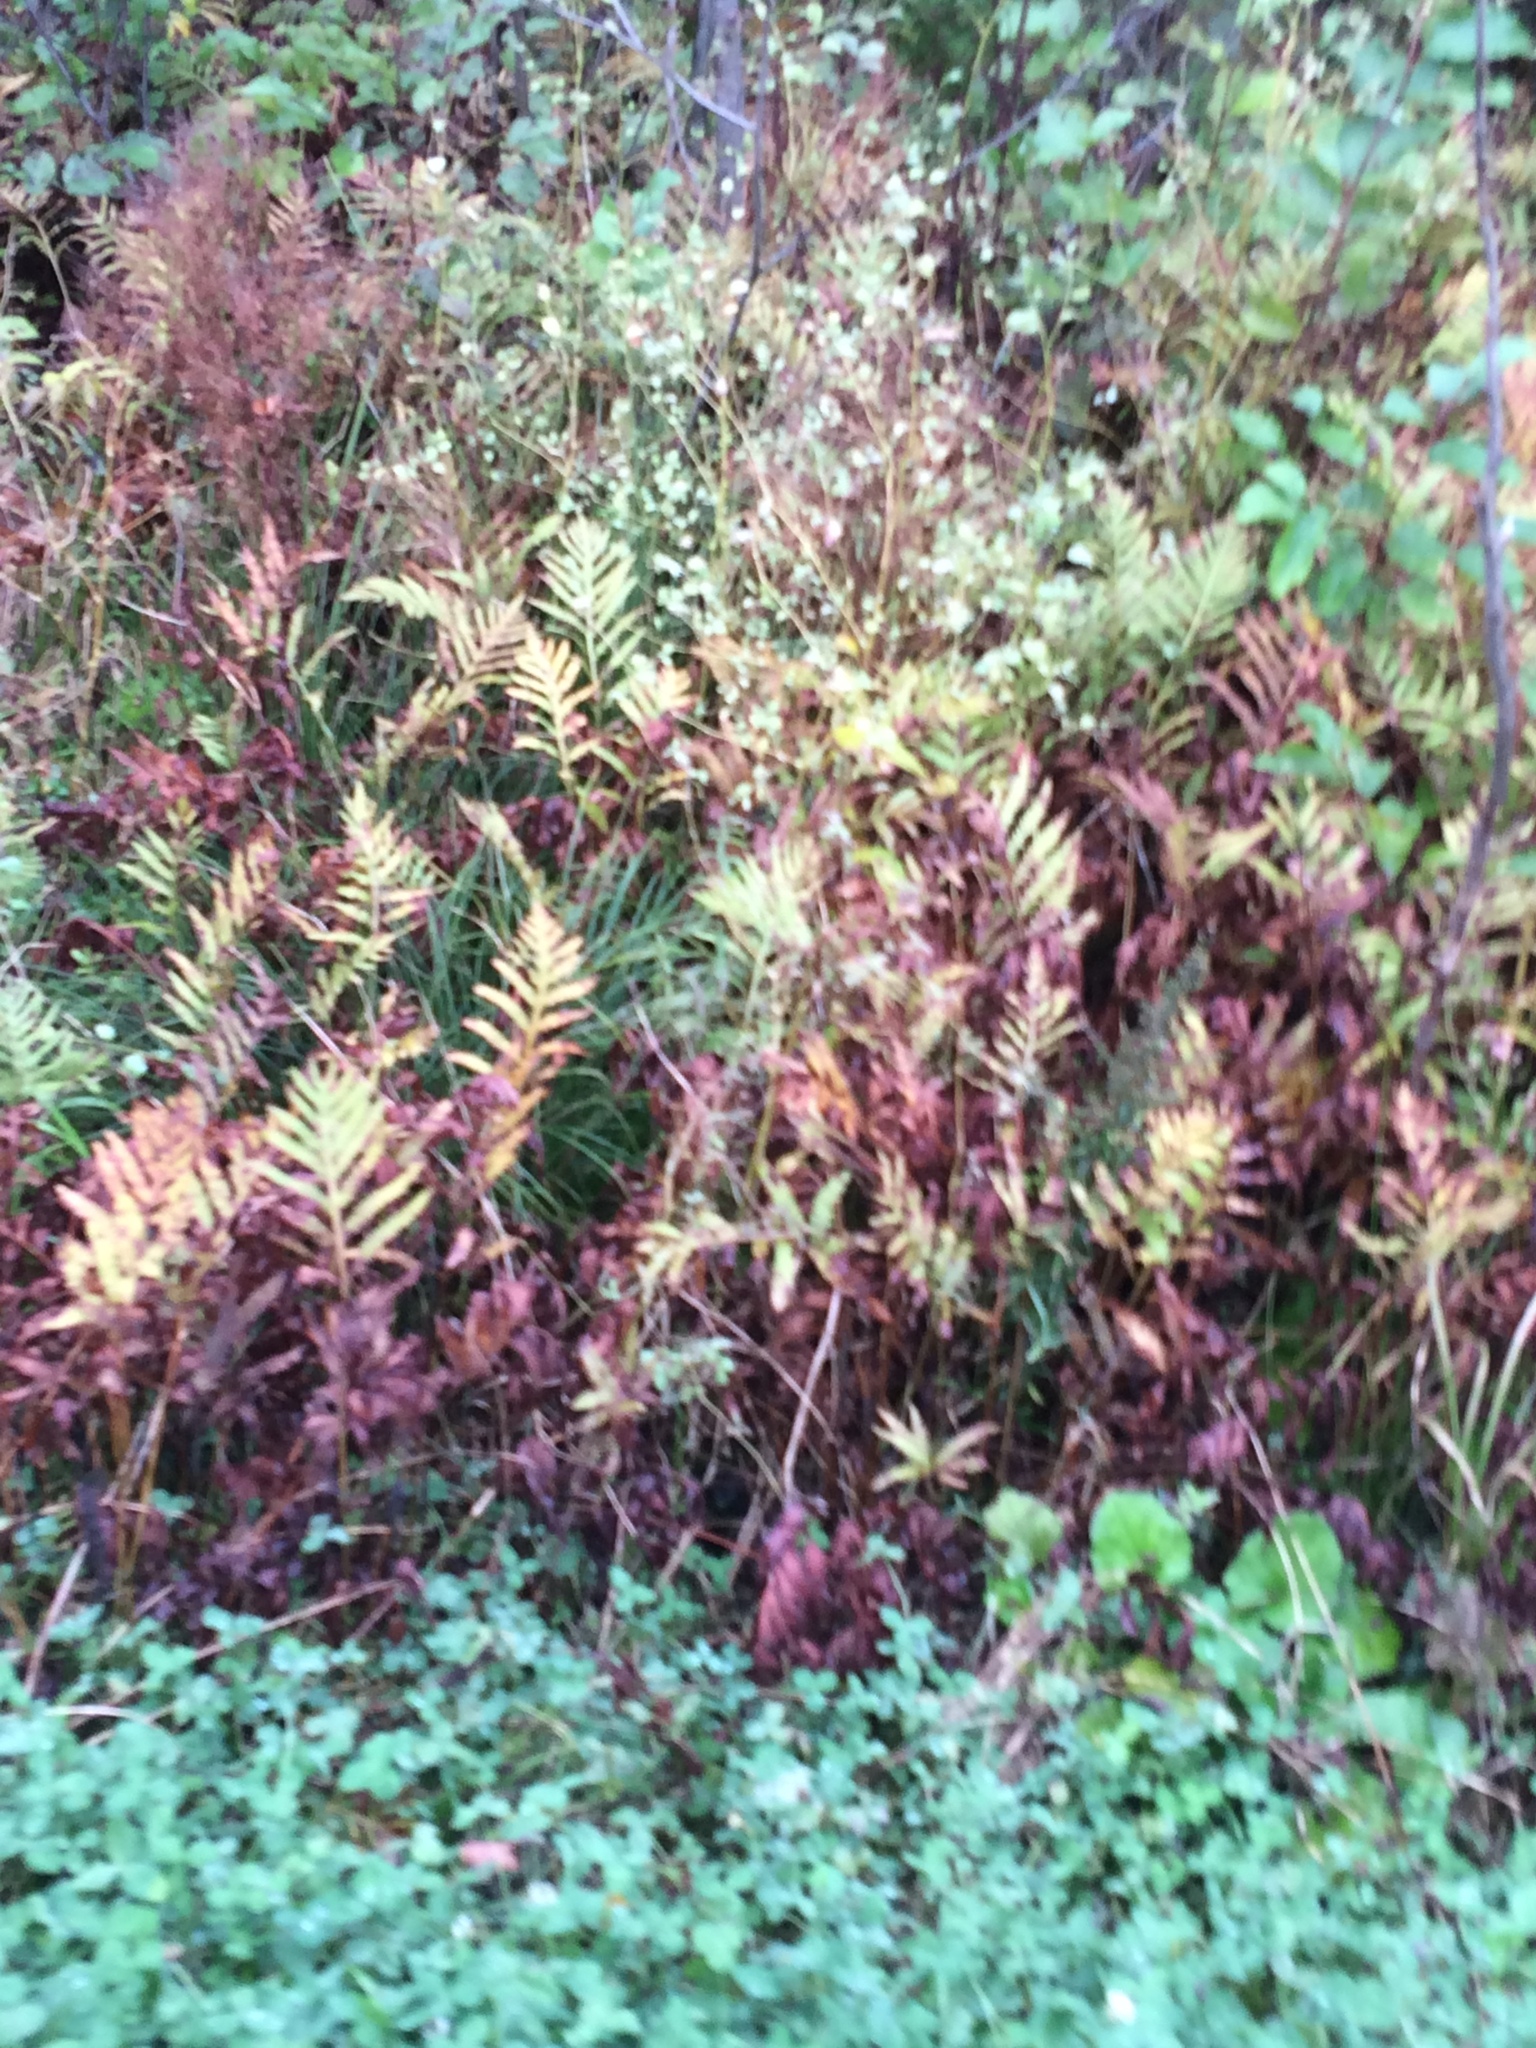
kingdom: Plantae
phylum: Tracheophyta
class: Polypodiopsida
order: Polypodiales
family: Onocleaceae
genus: Onoclea
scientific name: Onoclea sensibilis
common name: Sensitive fern
